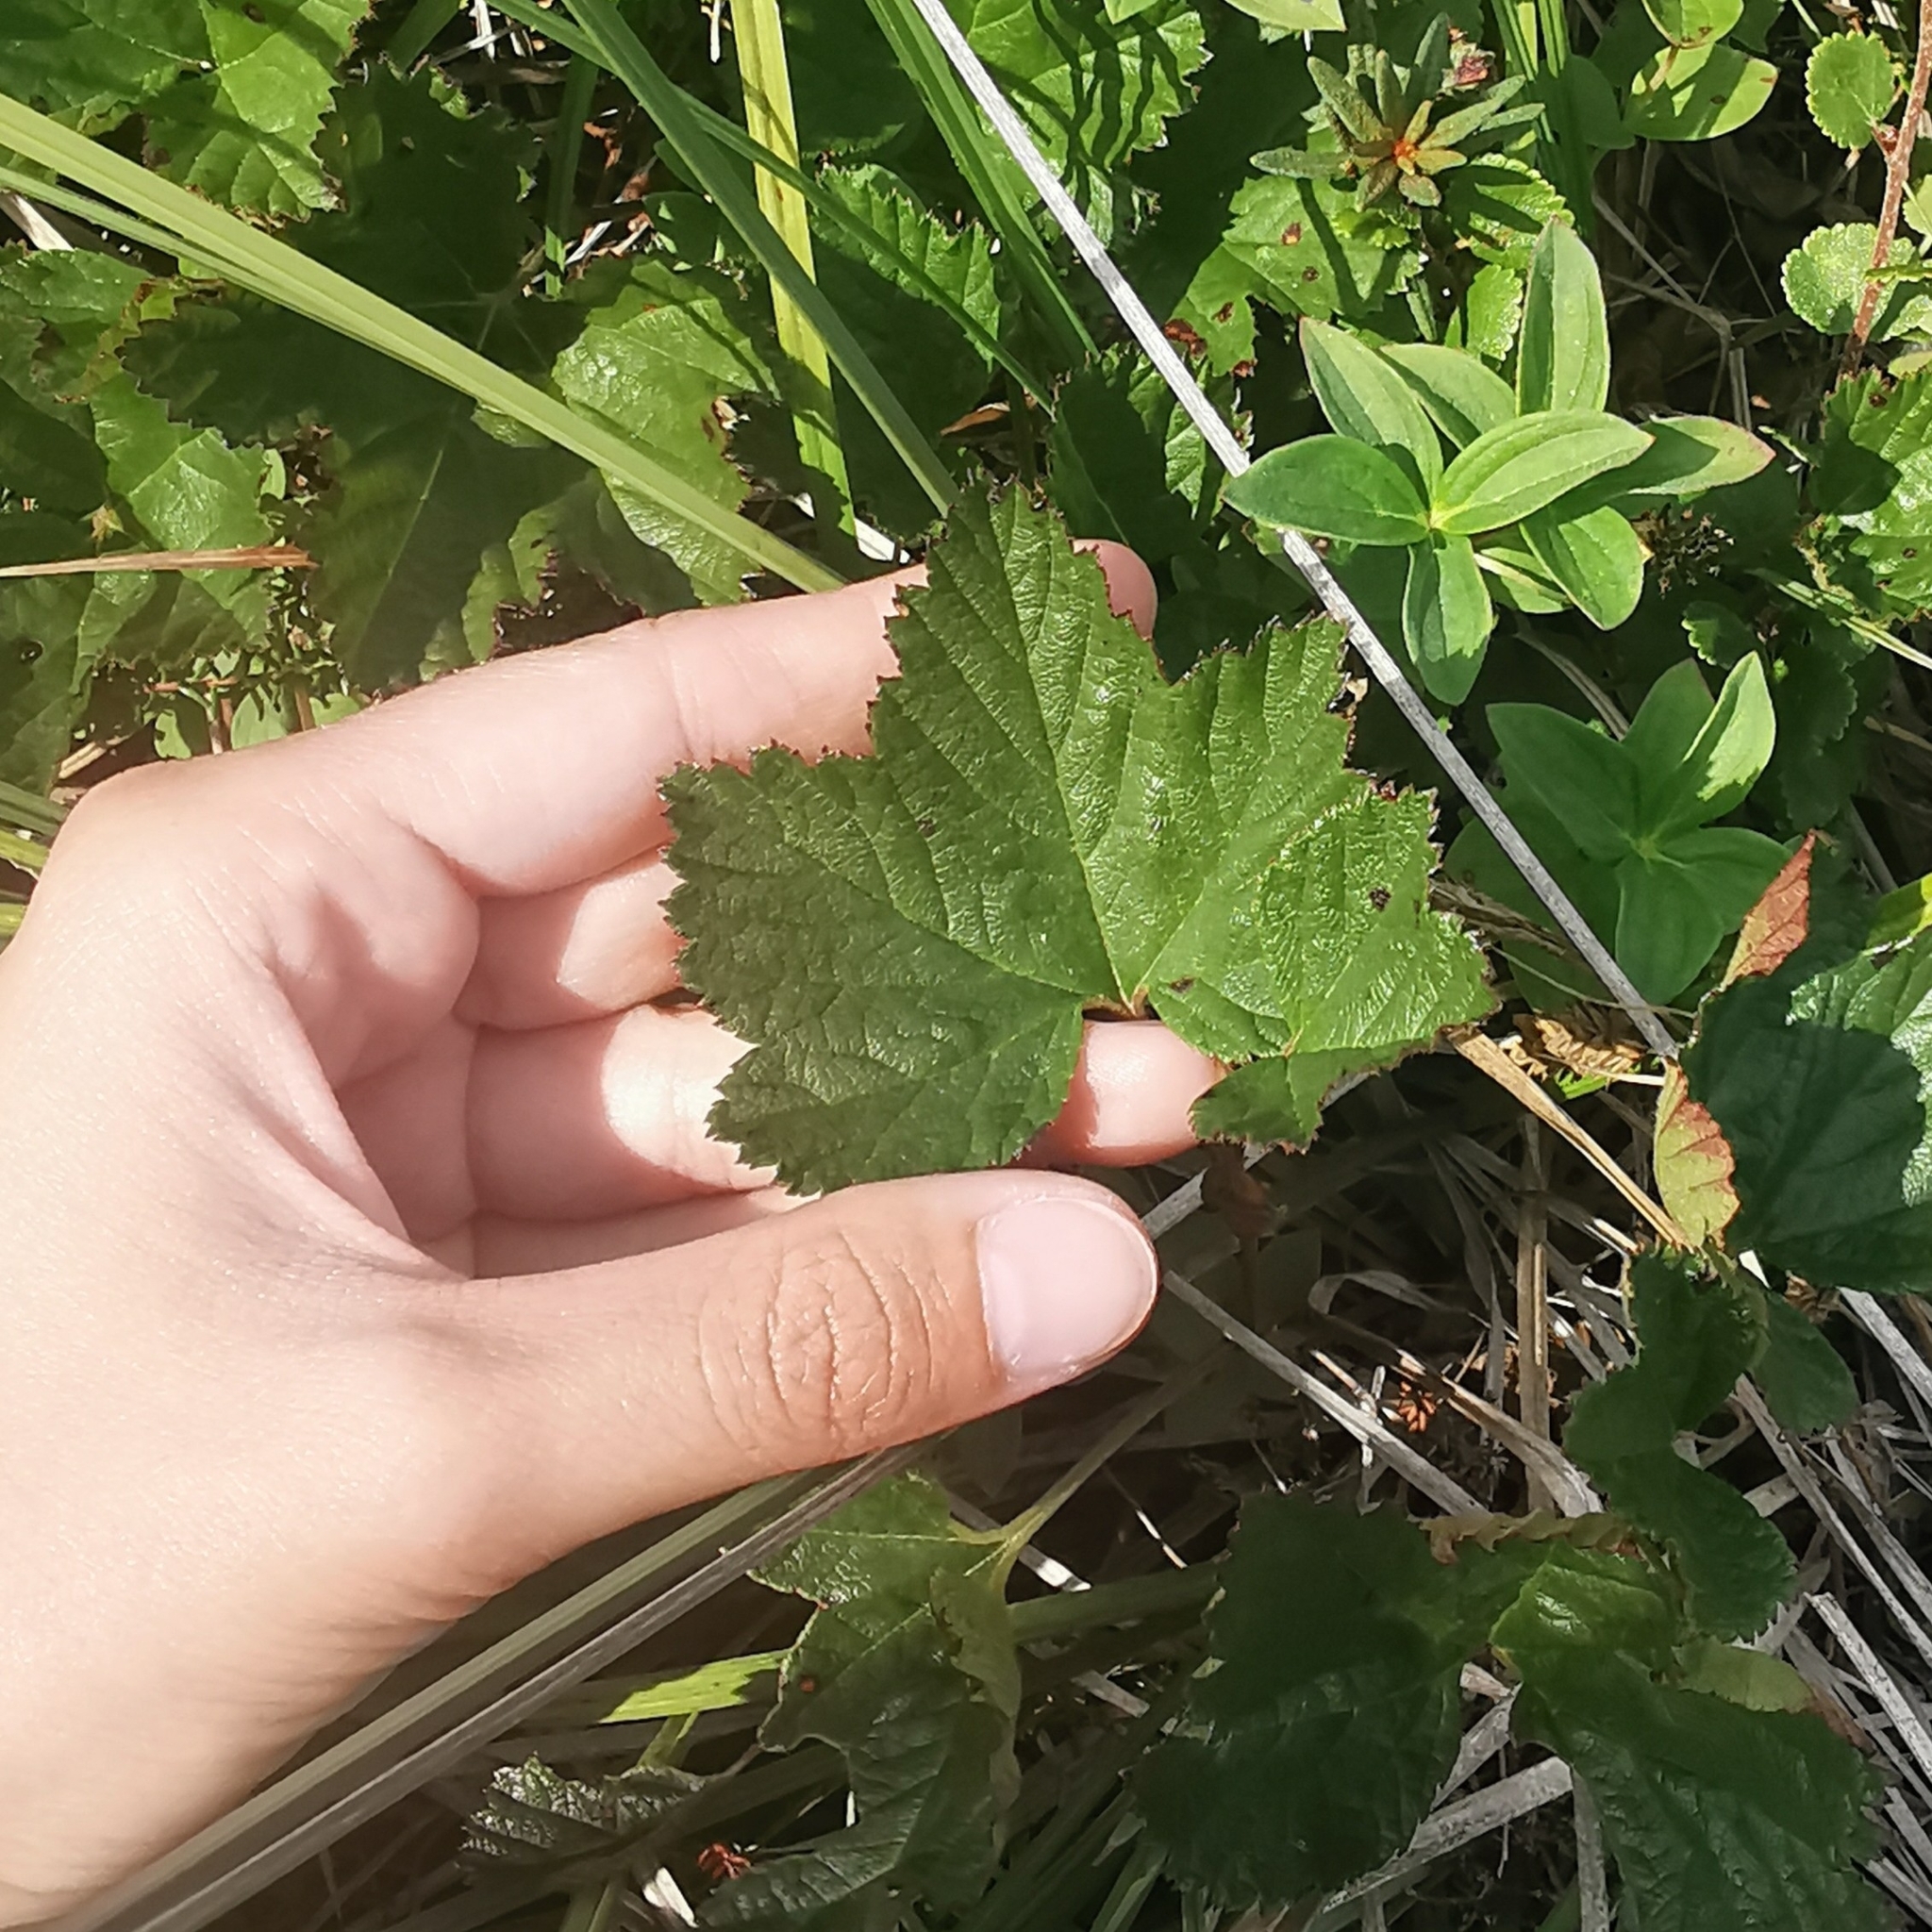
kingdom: Plantae
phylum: Tracheophyta
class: Magnoliopsida
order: Rosales
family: Rosaceae
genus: Rubus
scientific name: Rubus chamaemorus
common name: Cloudberry
